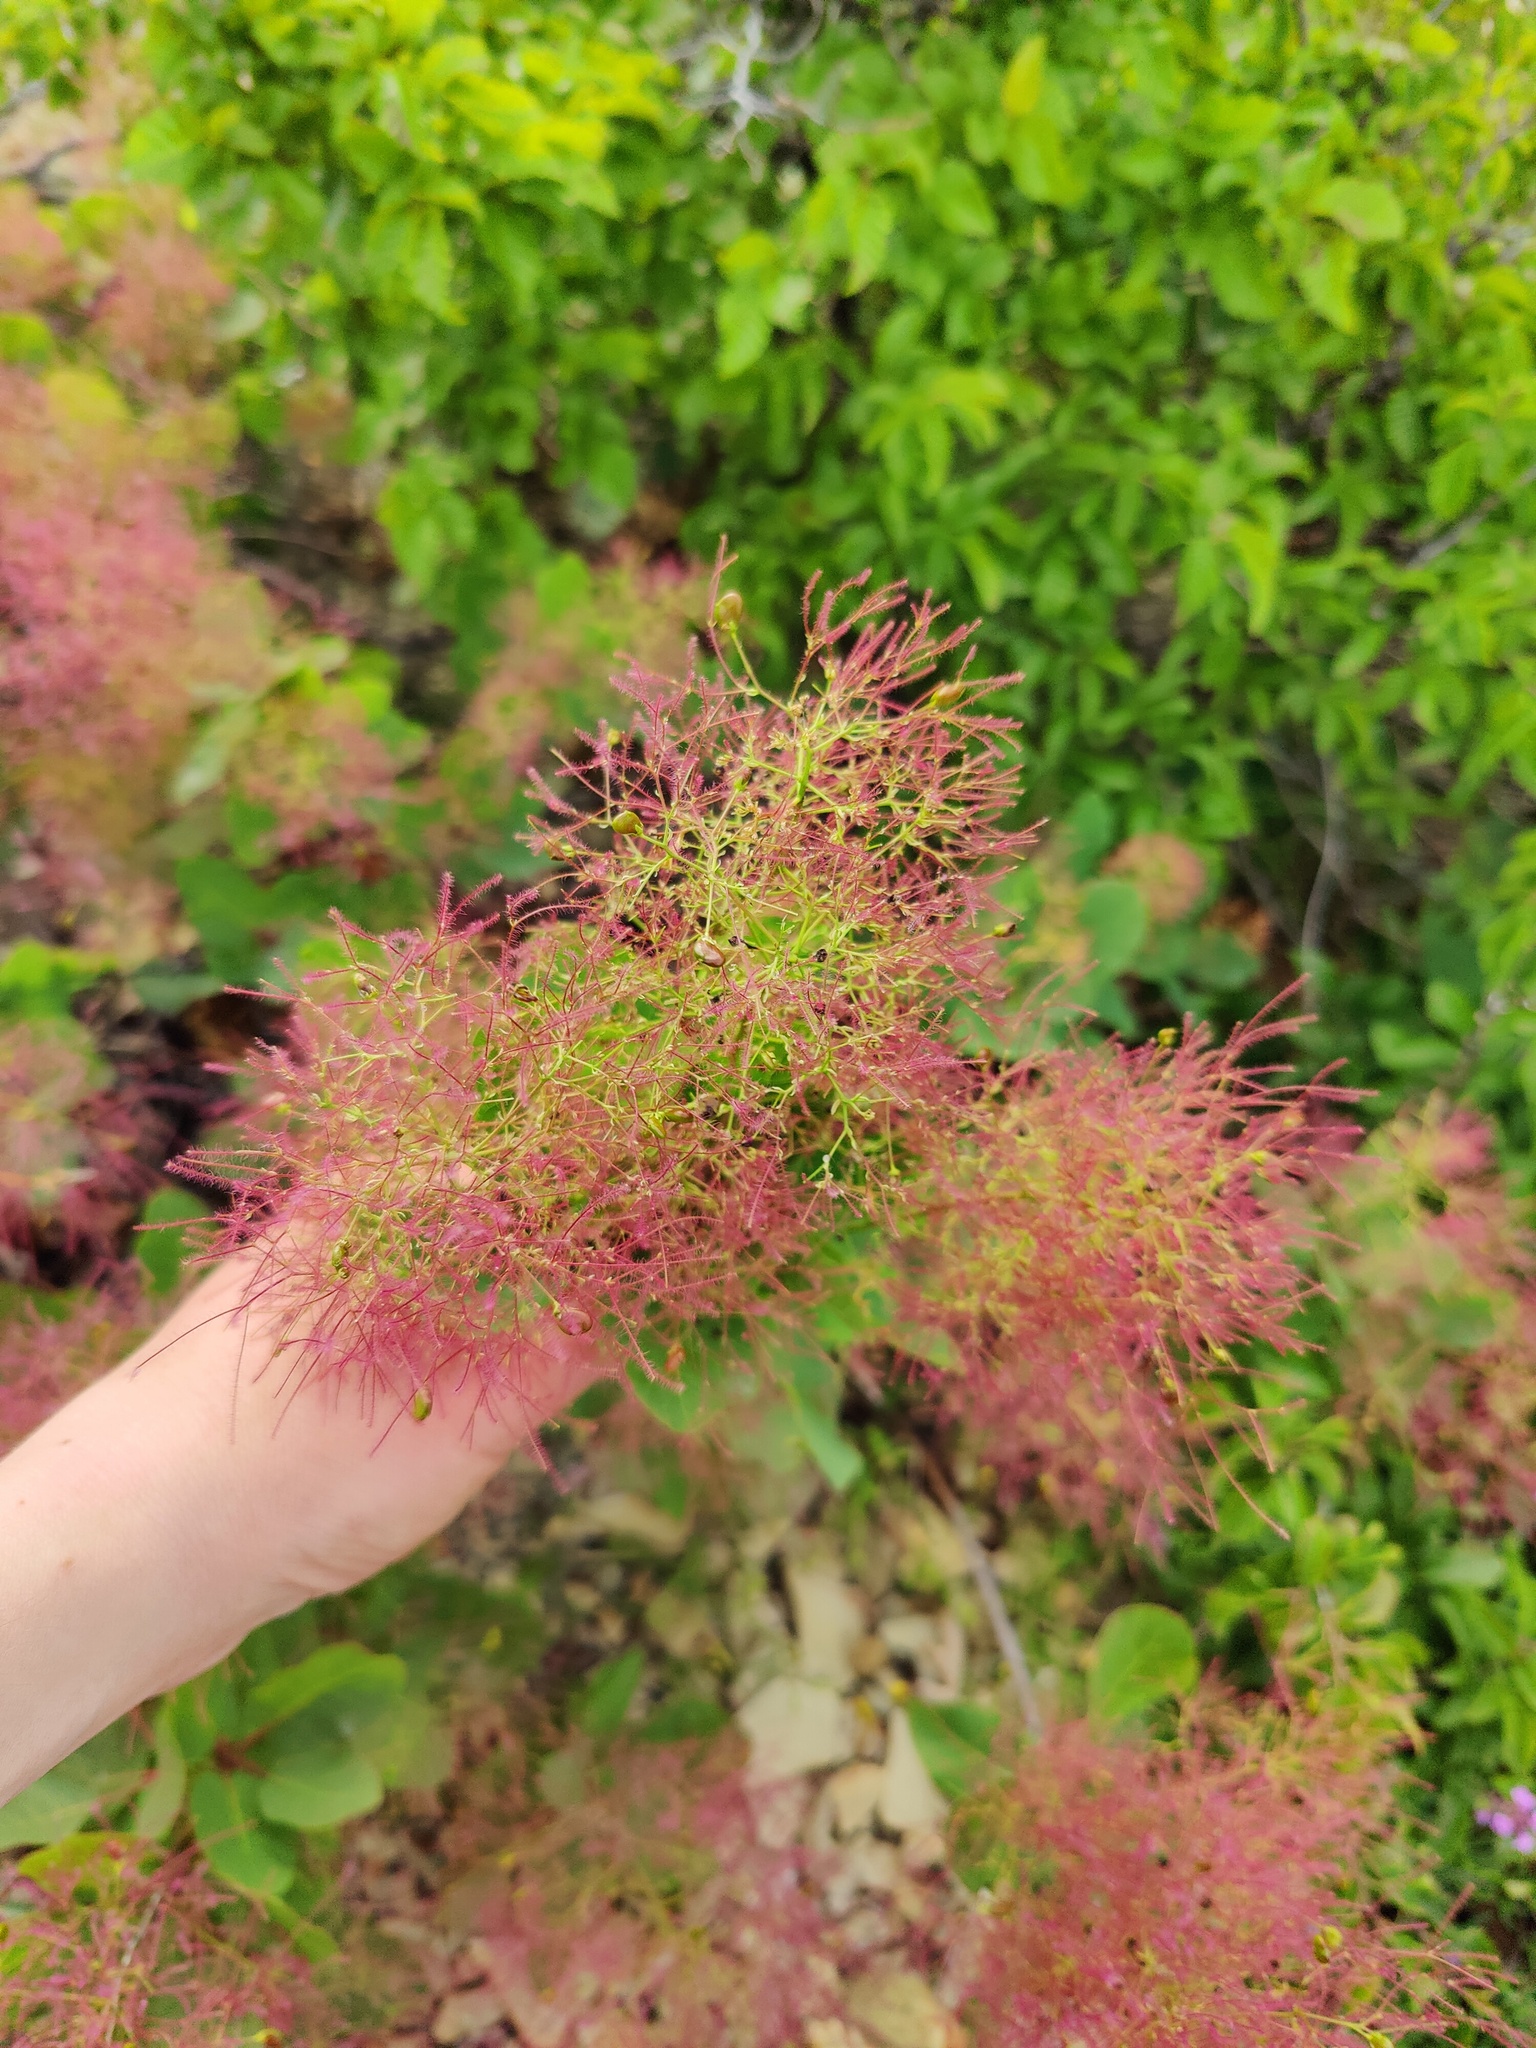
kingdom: Plantae
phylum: Tracheophyta
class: Magnoliopsida
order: Sapindales
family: Anacardiaceae
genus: Cotinus
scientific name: Cotinus coggygria
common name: Smoke-tree
